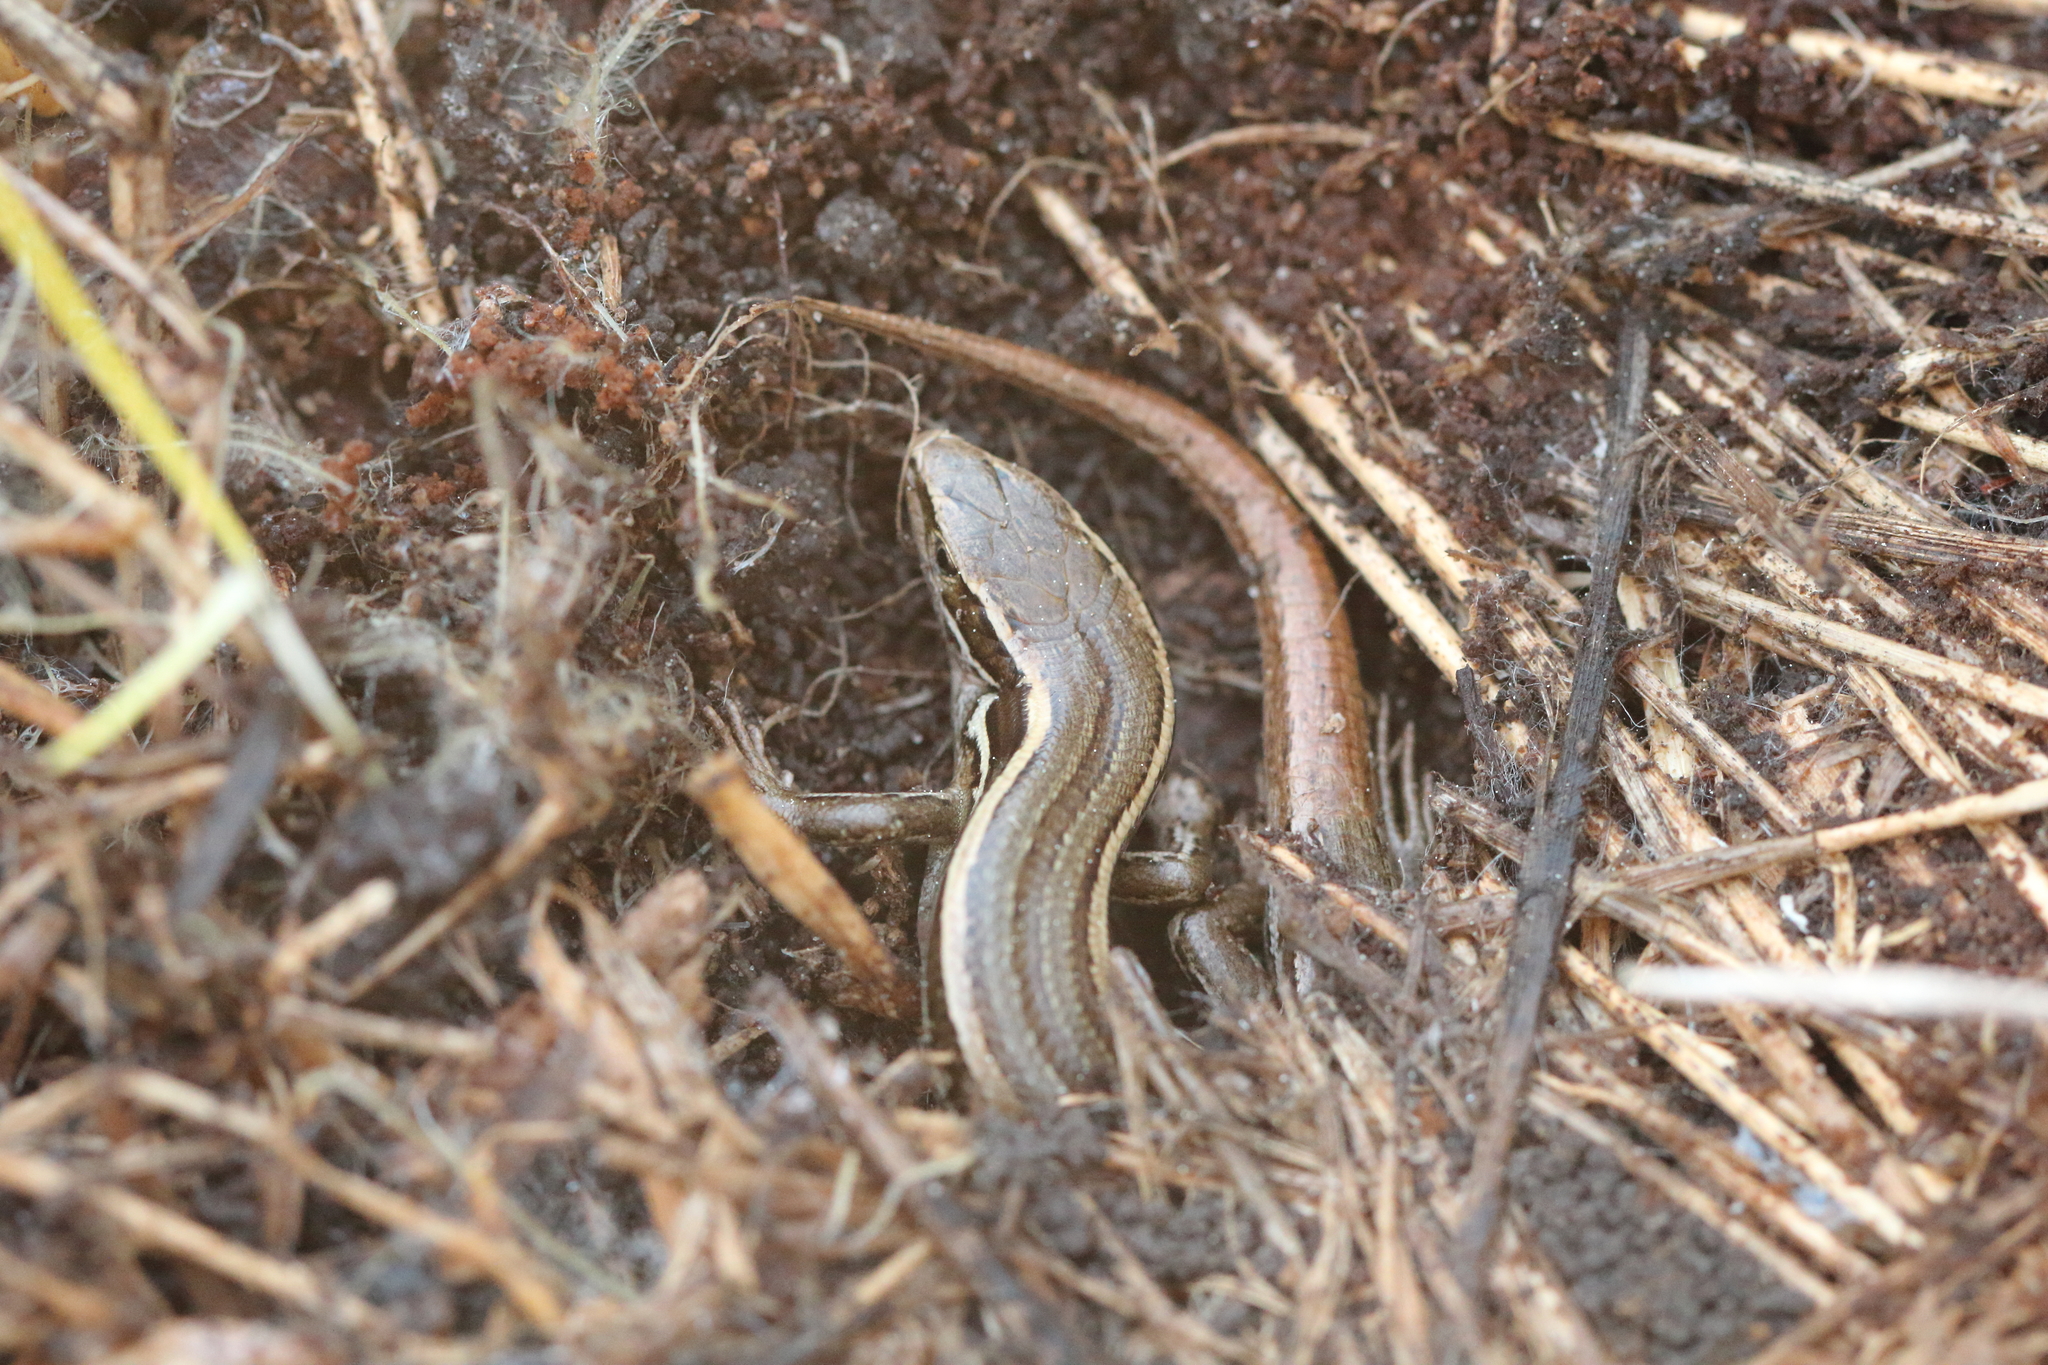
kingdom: Animalia
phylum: Chordata
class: Squamata
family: Scincidae
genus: Oligosoma
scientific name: Oligosoma polychroma
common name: Common new zealand skink
